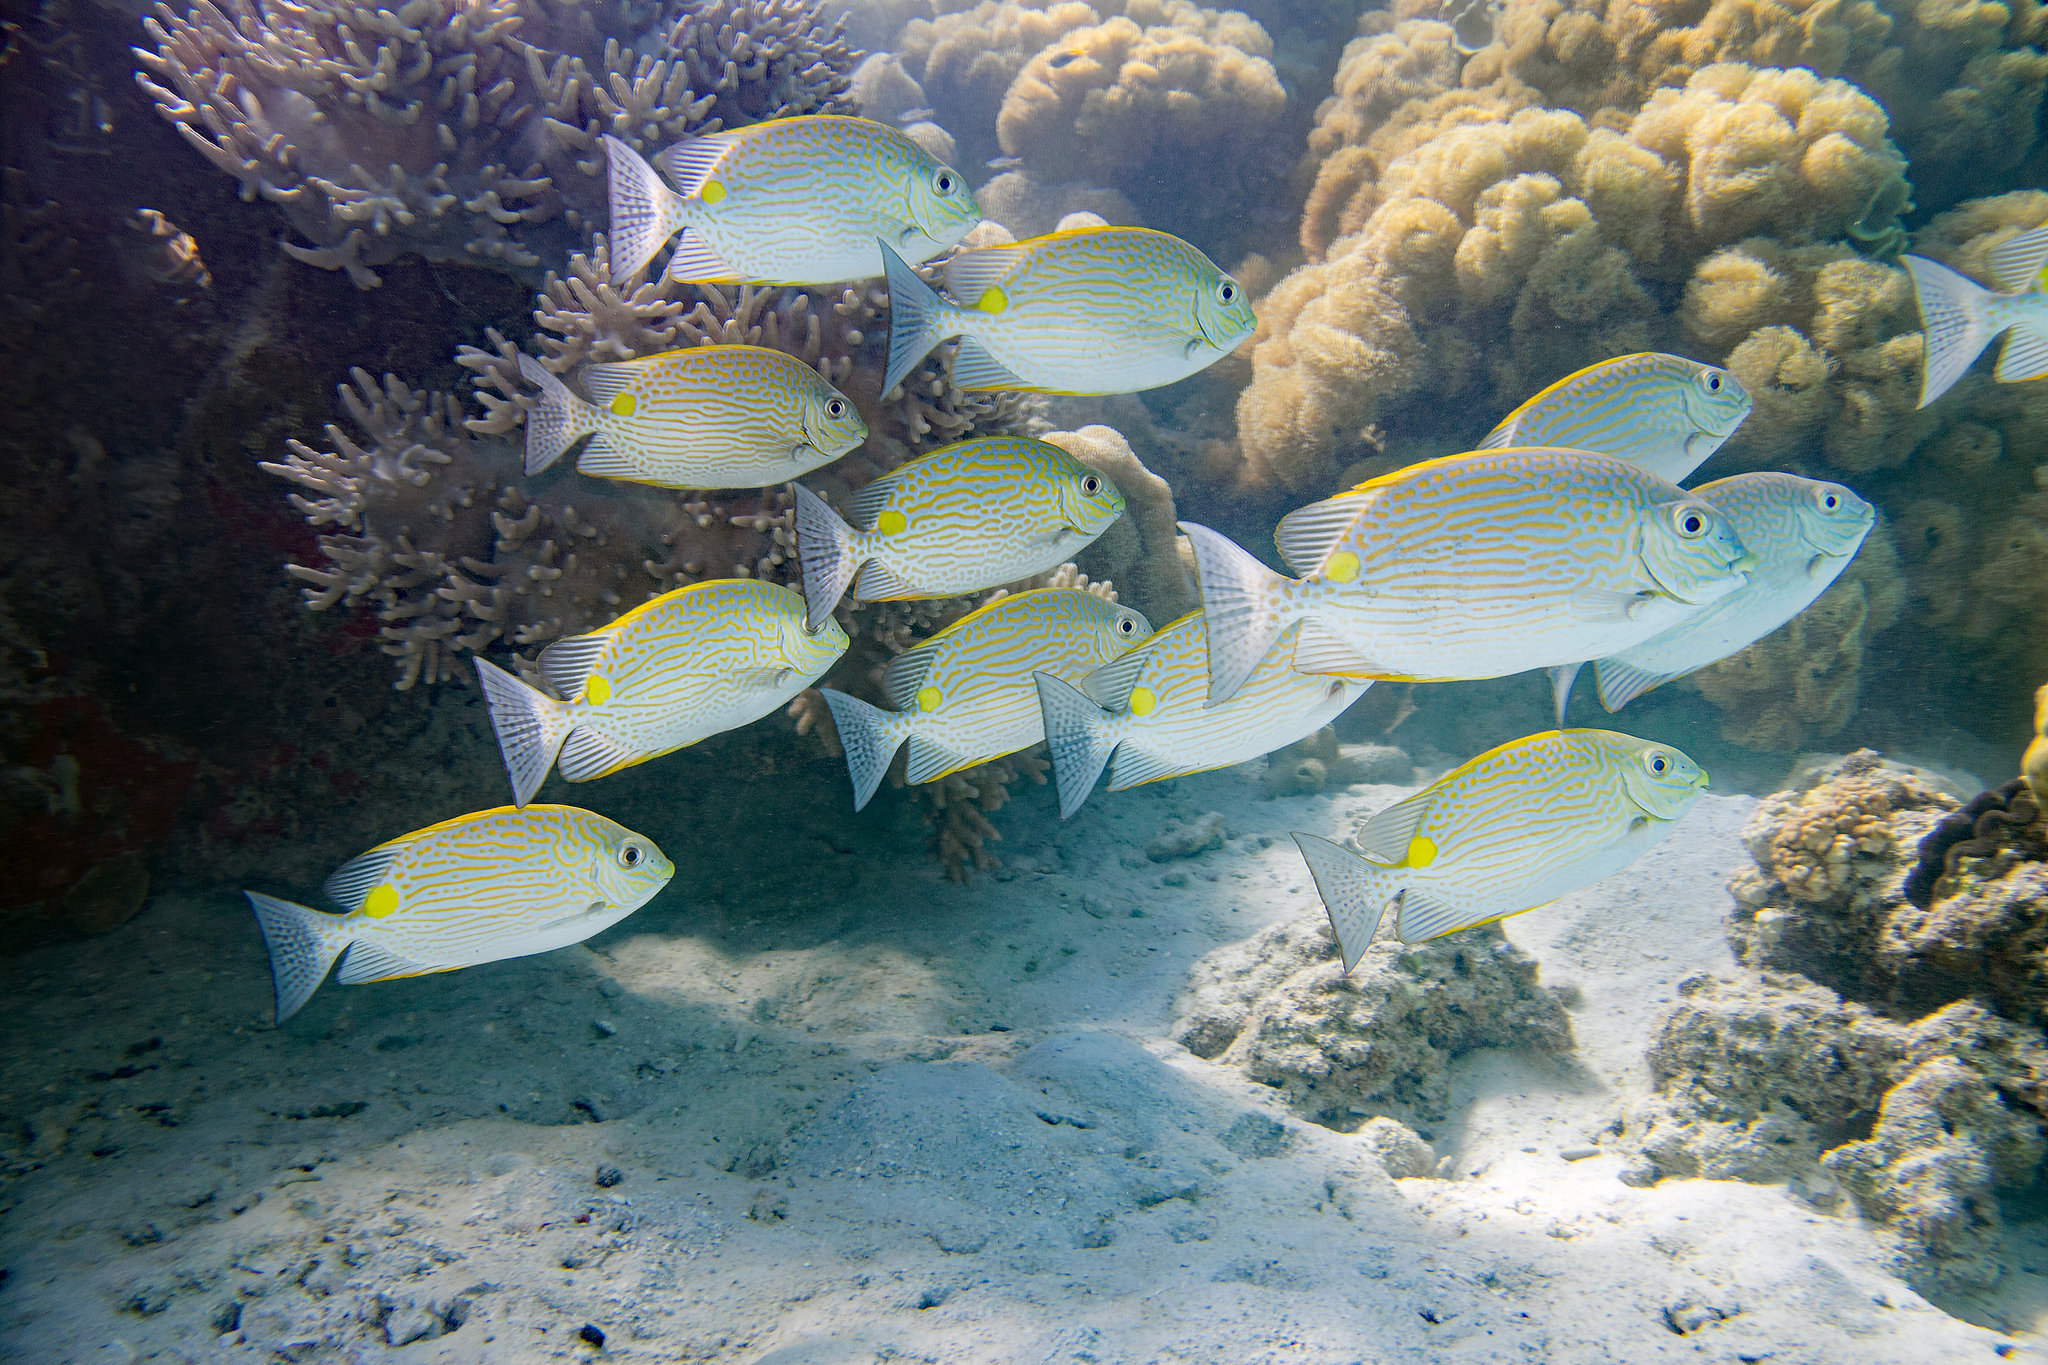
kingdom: Animalia
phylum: Chordata
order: Perciformes
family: Siganidae
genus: Siganus
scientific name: Siganus lineatus
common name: Lined rabbitfish
